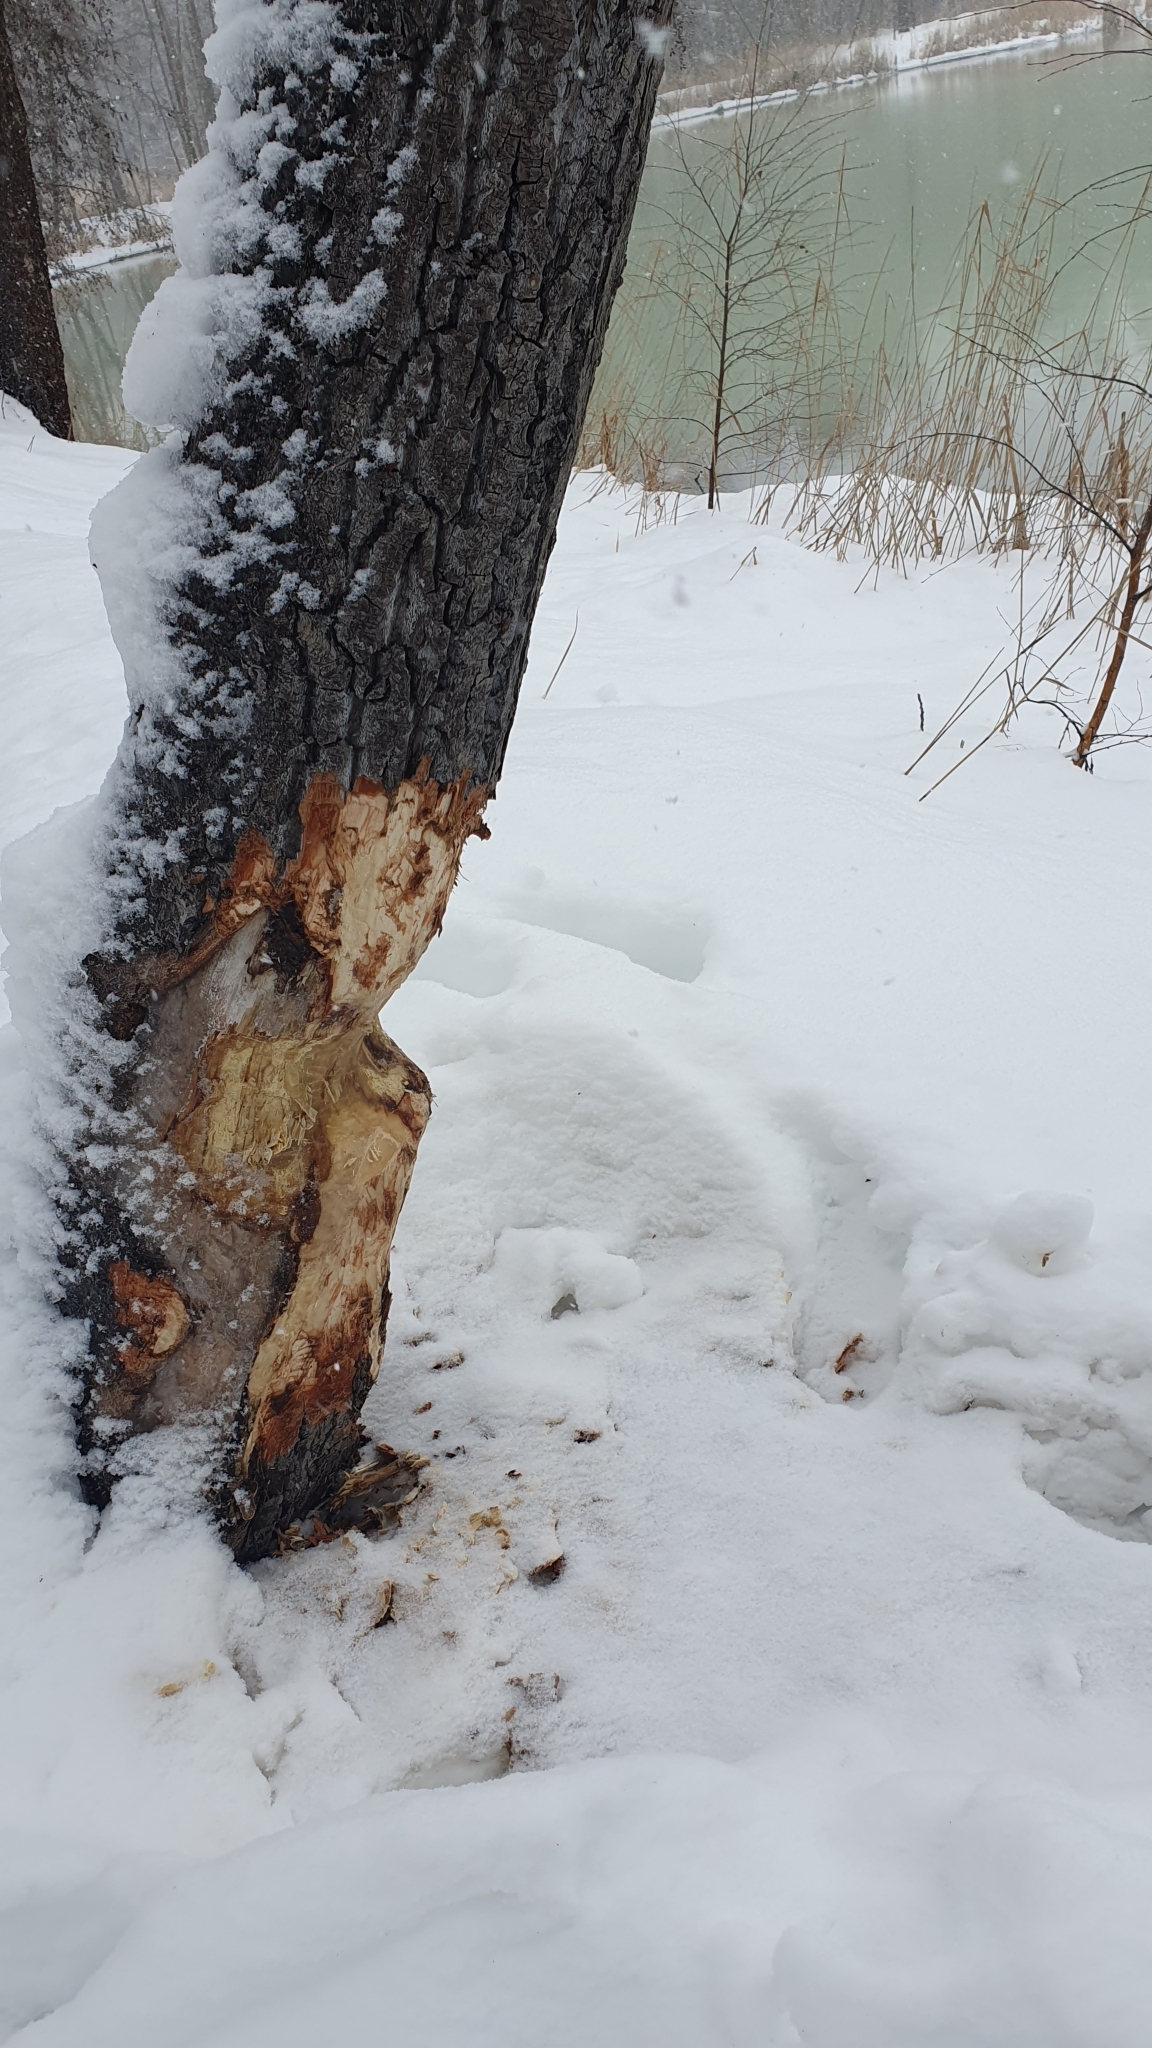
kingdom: Animalia
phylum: Chordata
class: Mammalia
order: Rodentia
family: Castoridae
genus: Castor
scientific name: Castor fiber
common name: Eurasian beaver
